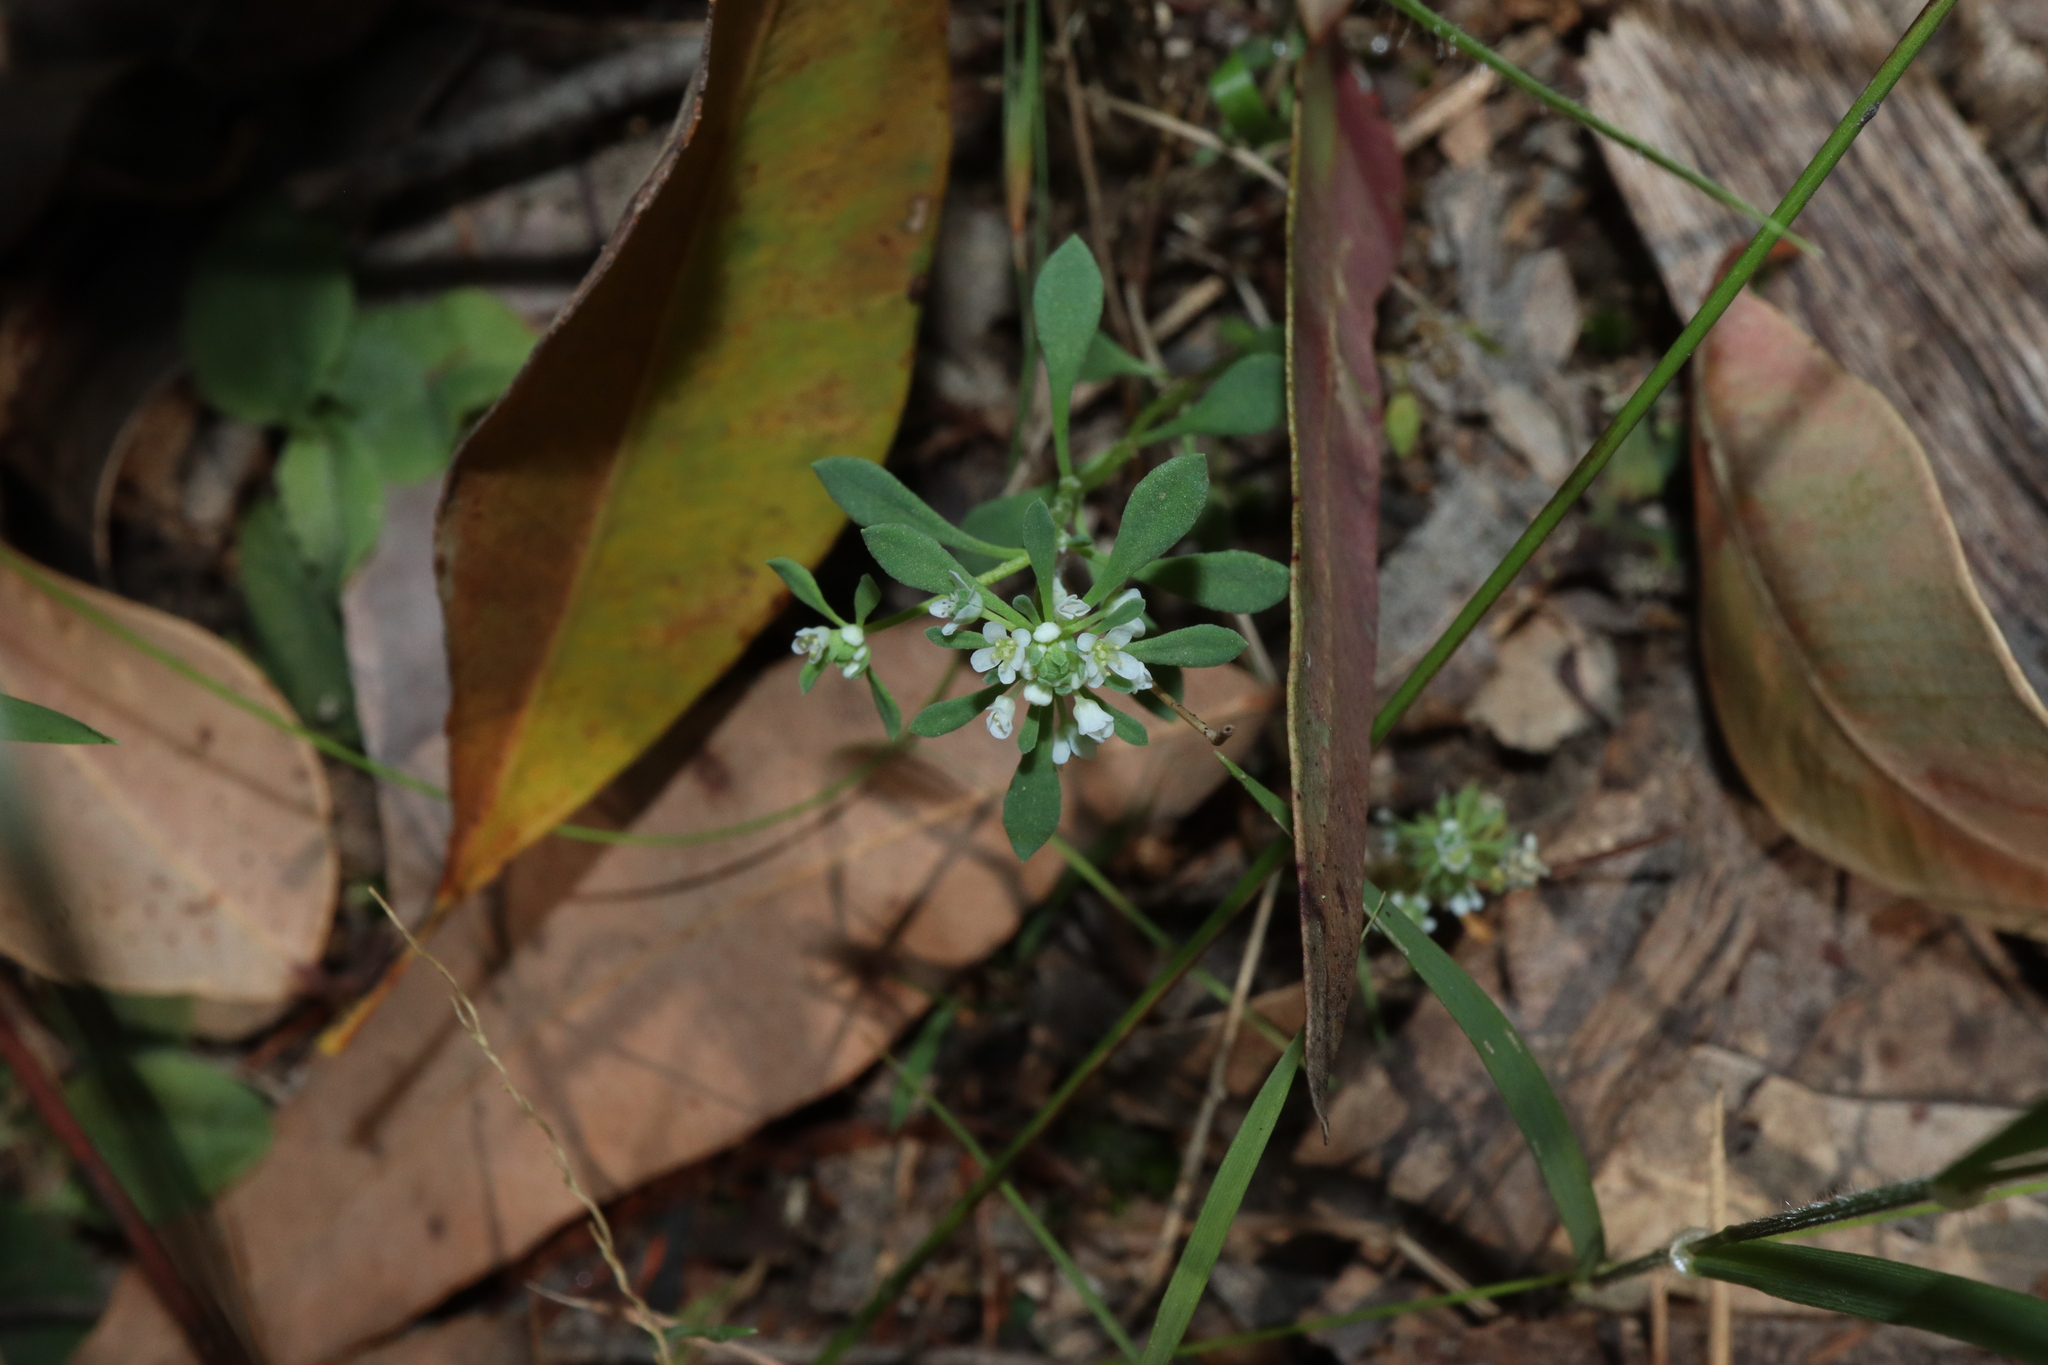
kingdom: Plantae
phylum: Tracheophyta
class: Magnoliopsida
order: Malpighiales
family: Phyllanthaceae
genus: Poranthera
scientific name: Poranthera microphylla
